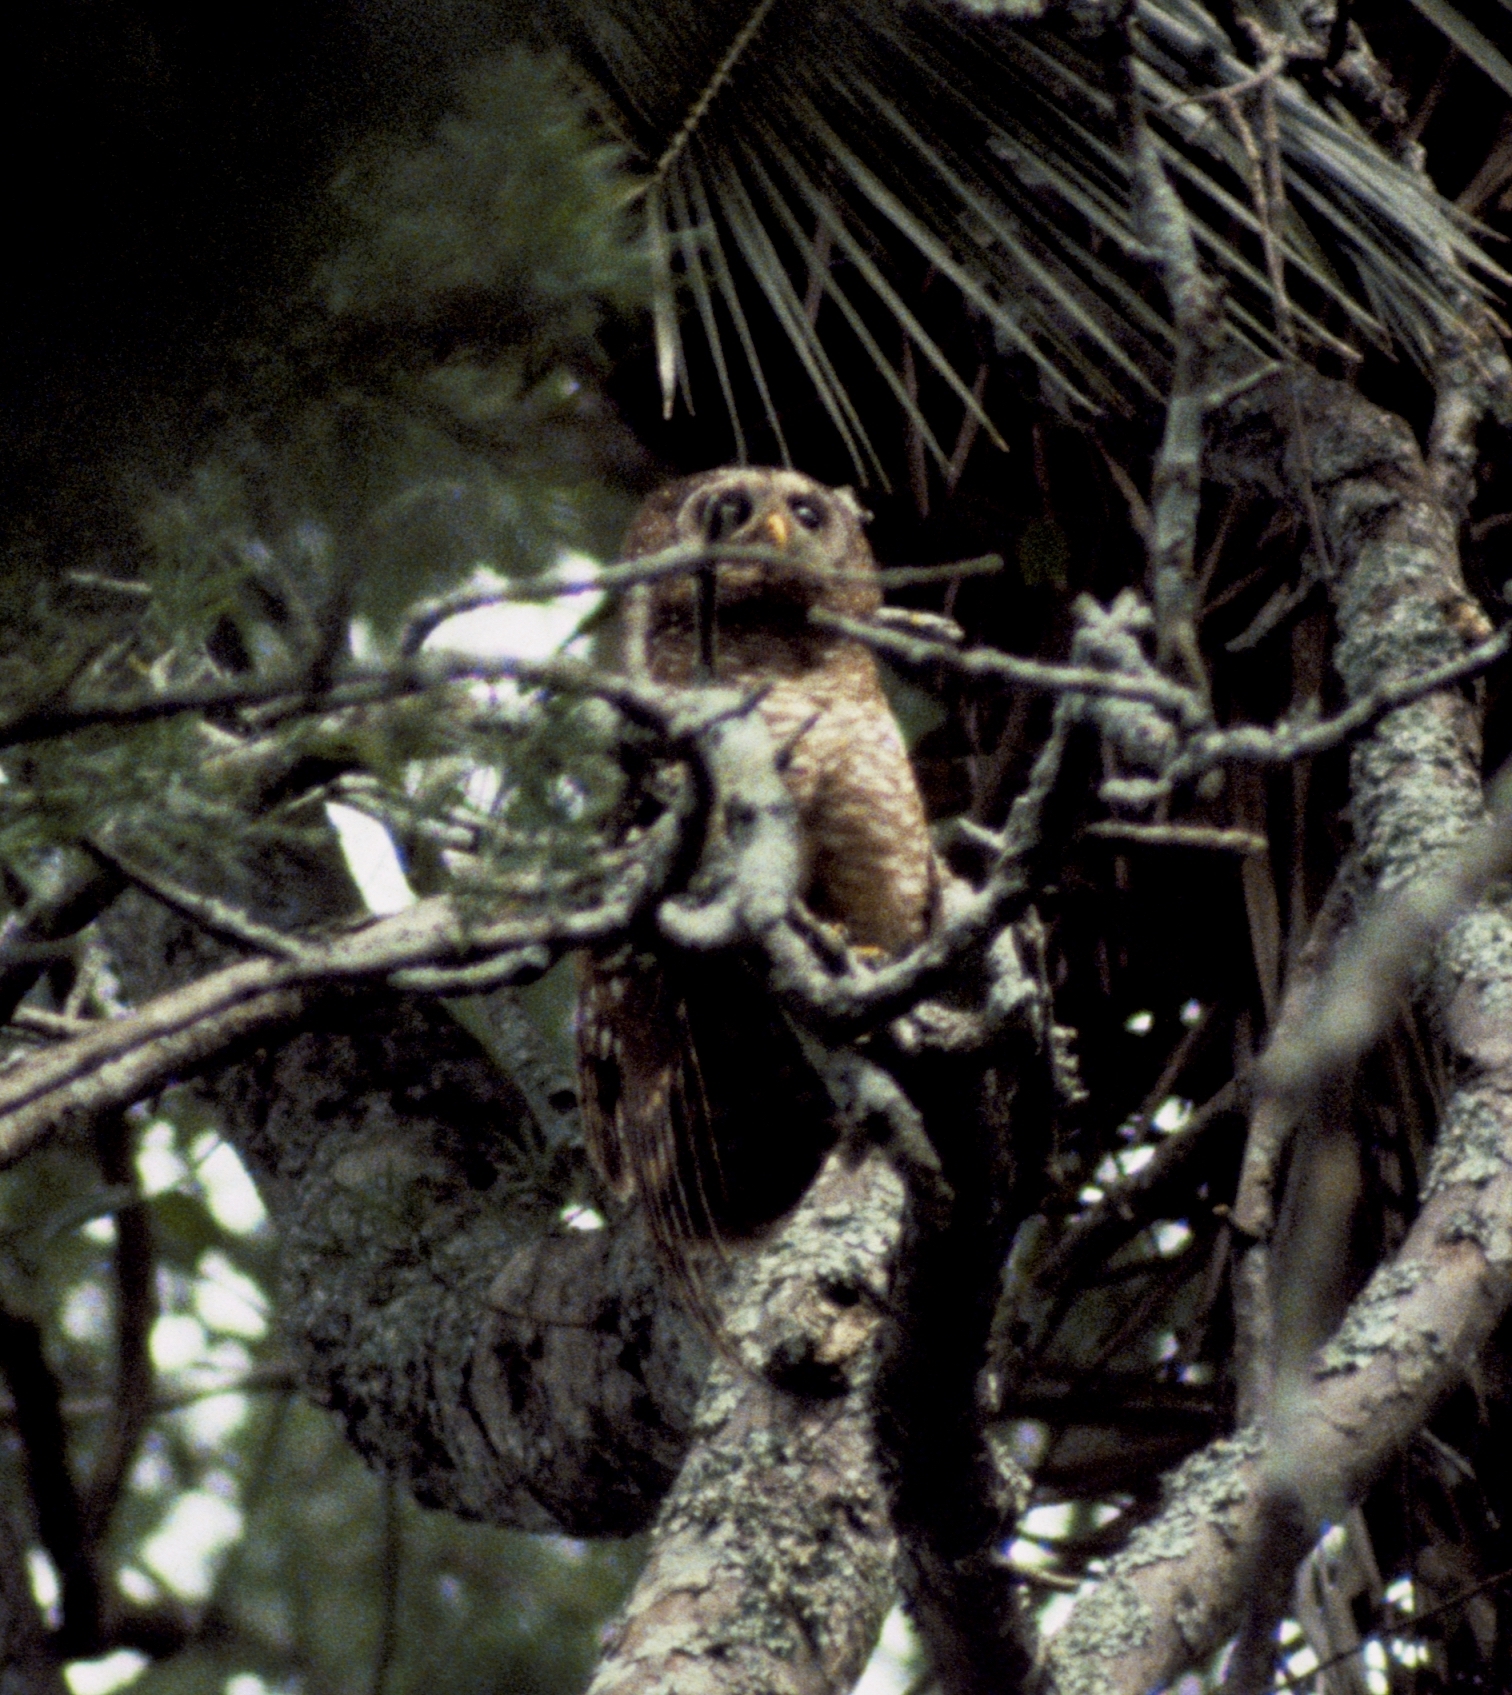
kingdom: Animalia
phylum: Chordata
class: Aves
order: Strigiformes
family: Strigidae
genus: Strix
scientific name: Strix woodfordii
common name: African wood owl
